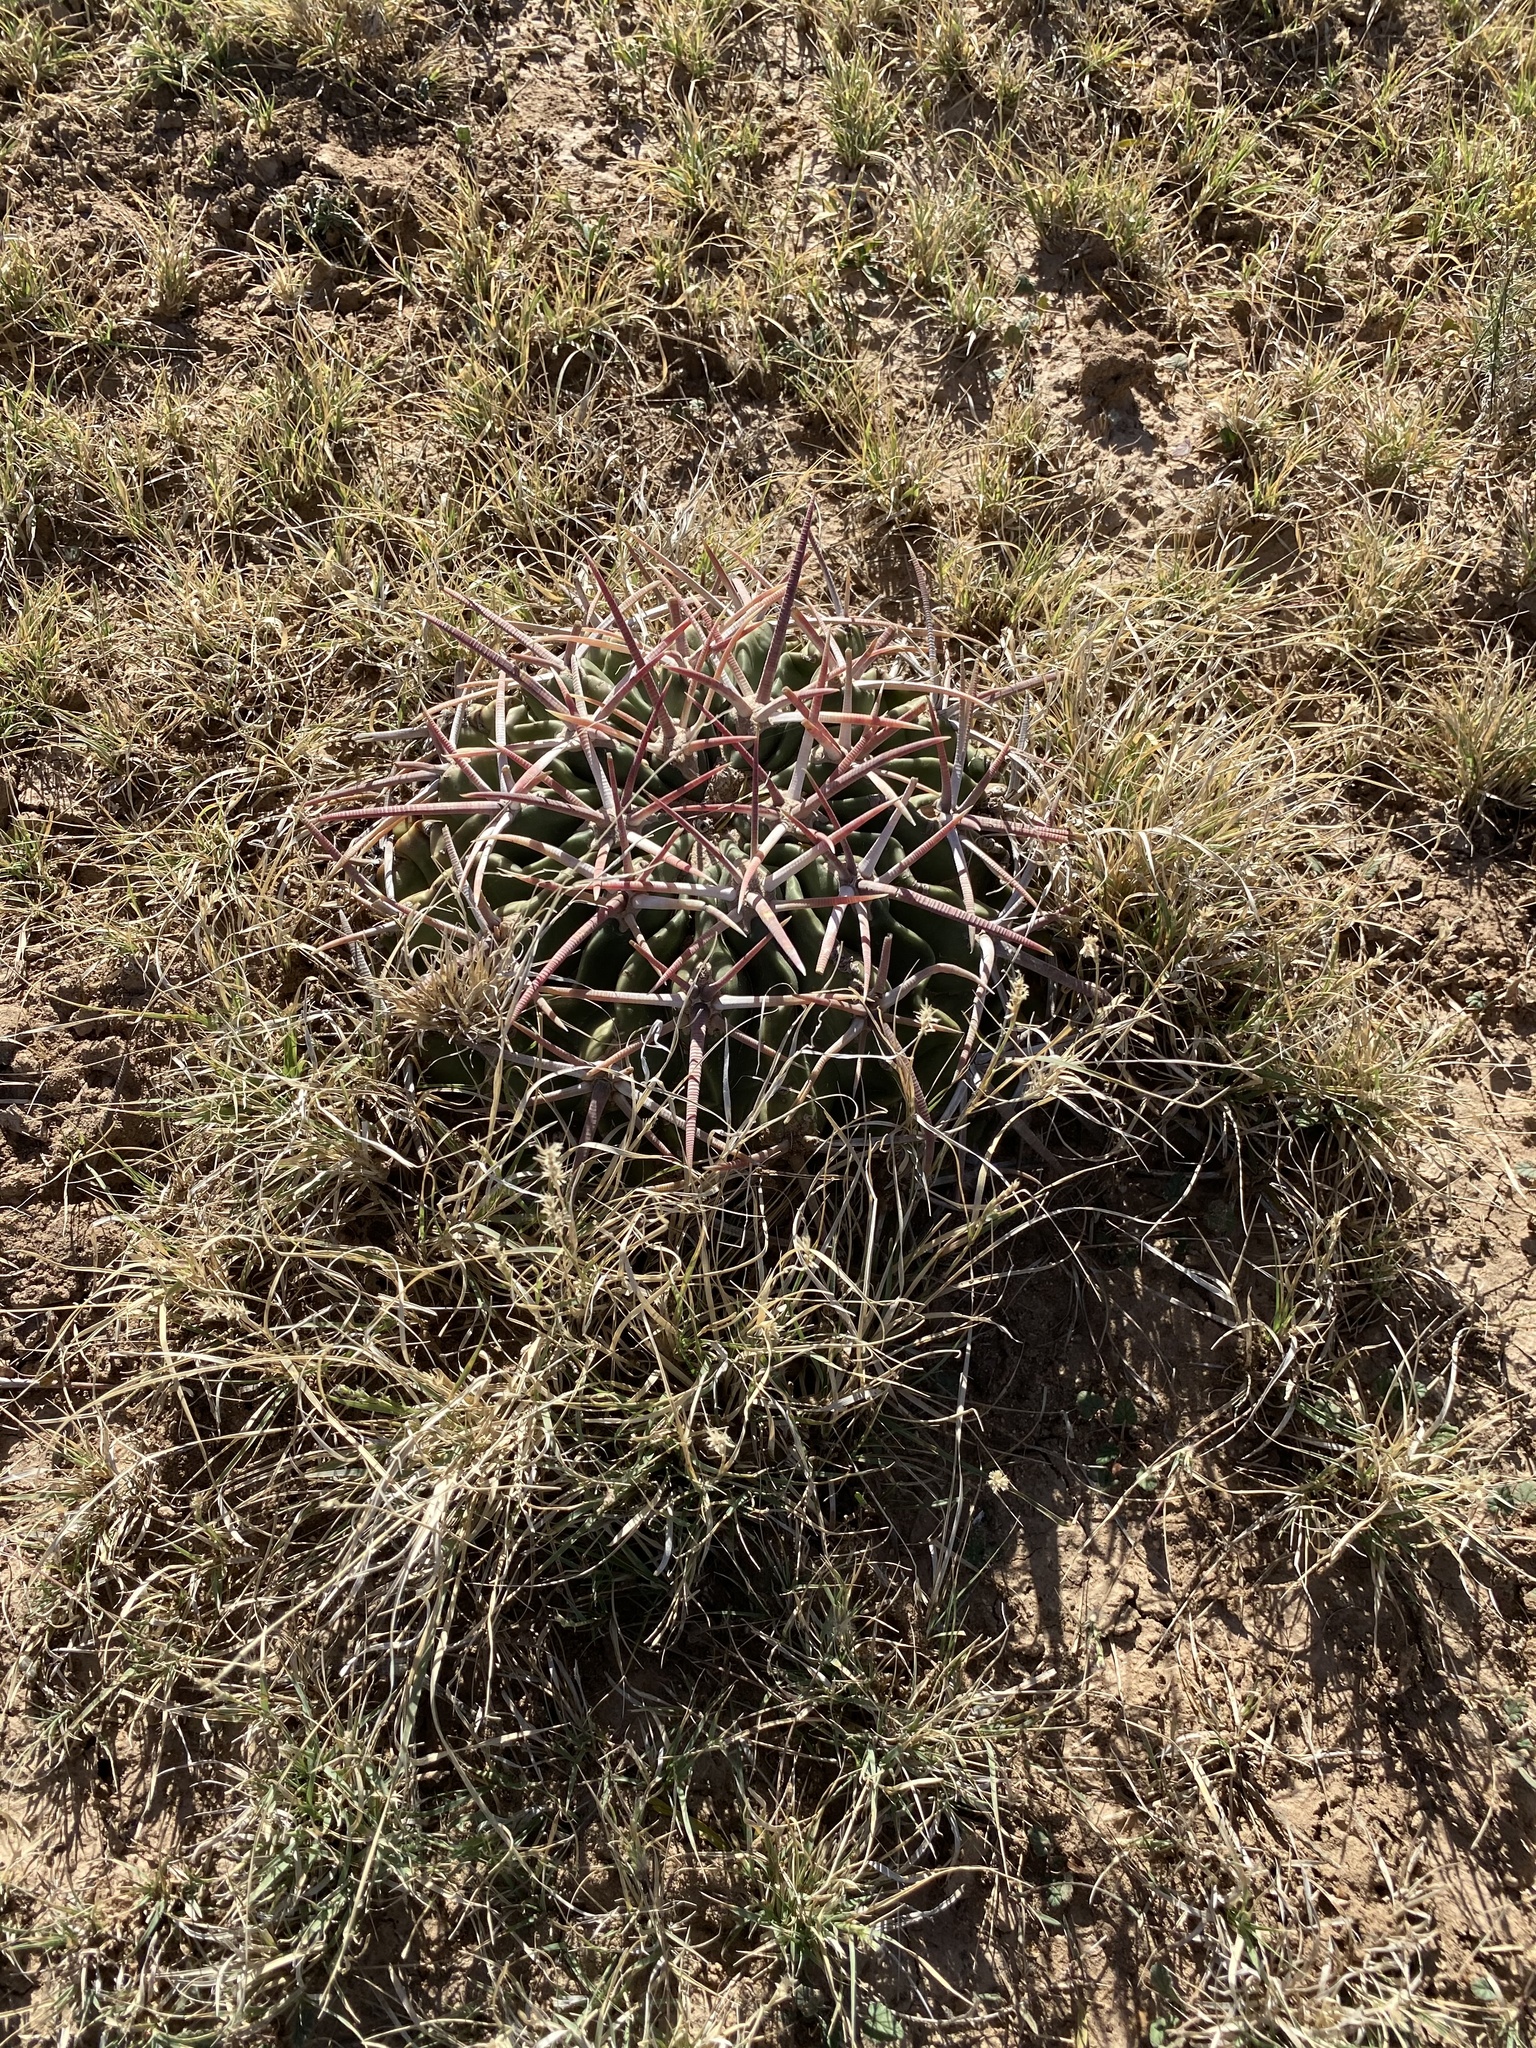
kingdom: Plantae
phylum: Tracheophyta
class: Magnoliopsida
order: Caryophyllales
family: Cactaceae
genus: Echinocactus
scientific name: Echinocactus texensis
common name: Devil's pincushion
